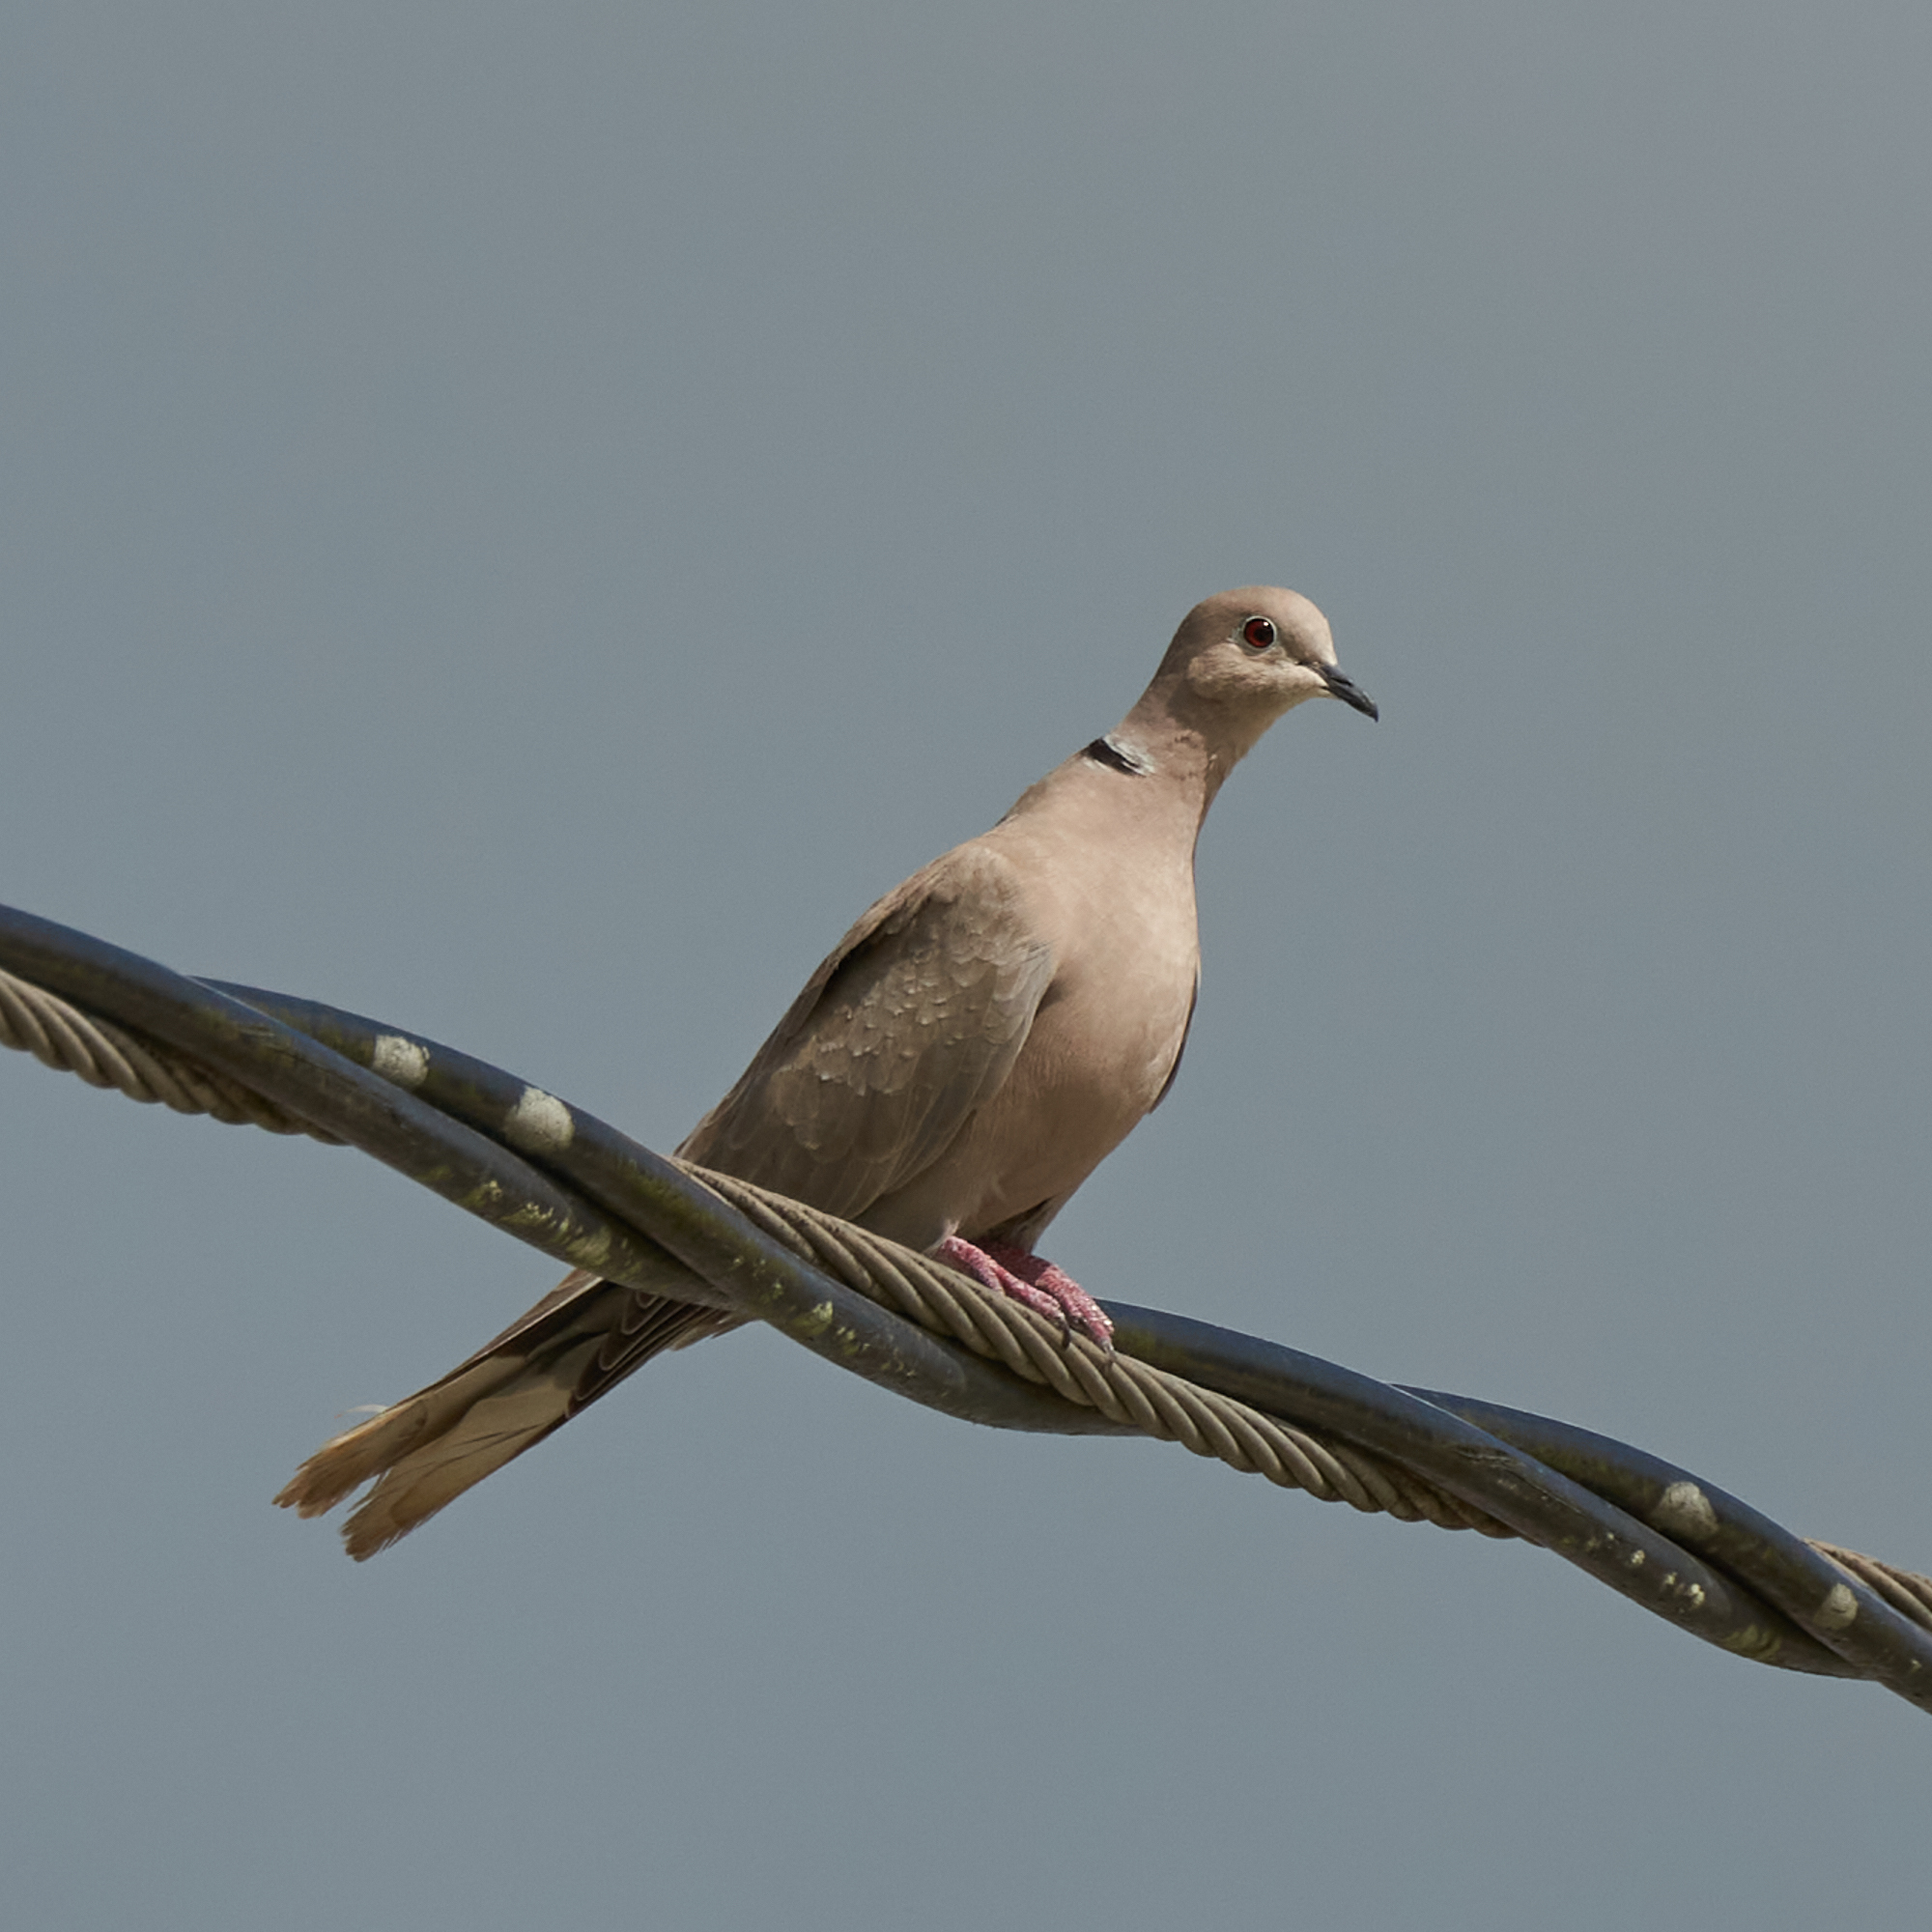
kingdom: Animalia
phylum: Chordata
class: Aves
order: Columbiformes
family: Columbidae
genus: Streptopelia
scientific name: Streptopelia decaocto
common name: Eurasian collared dove
